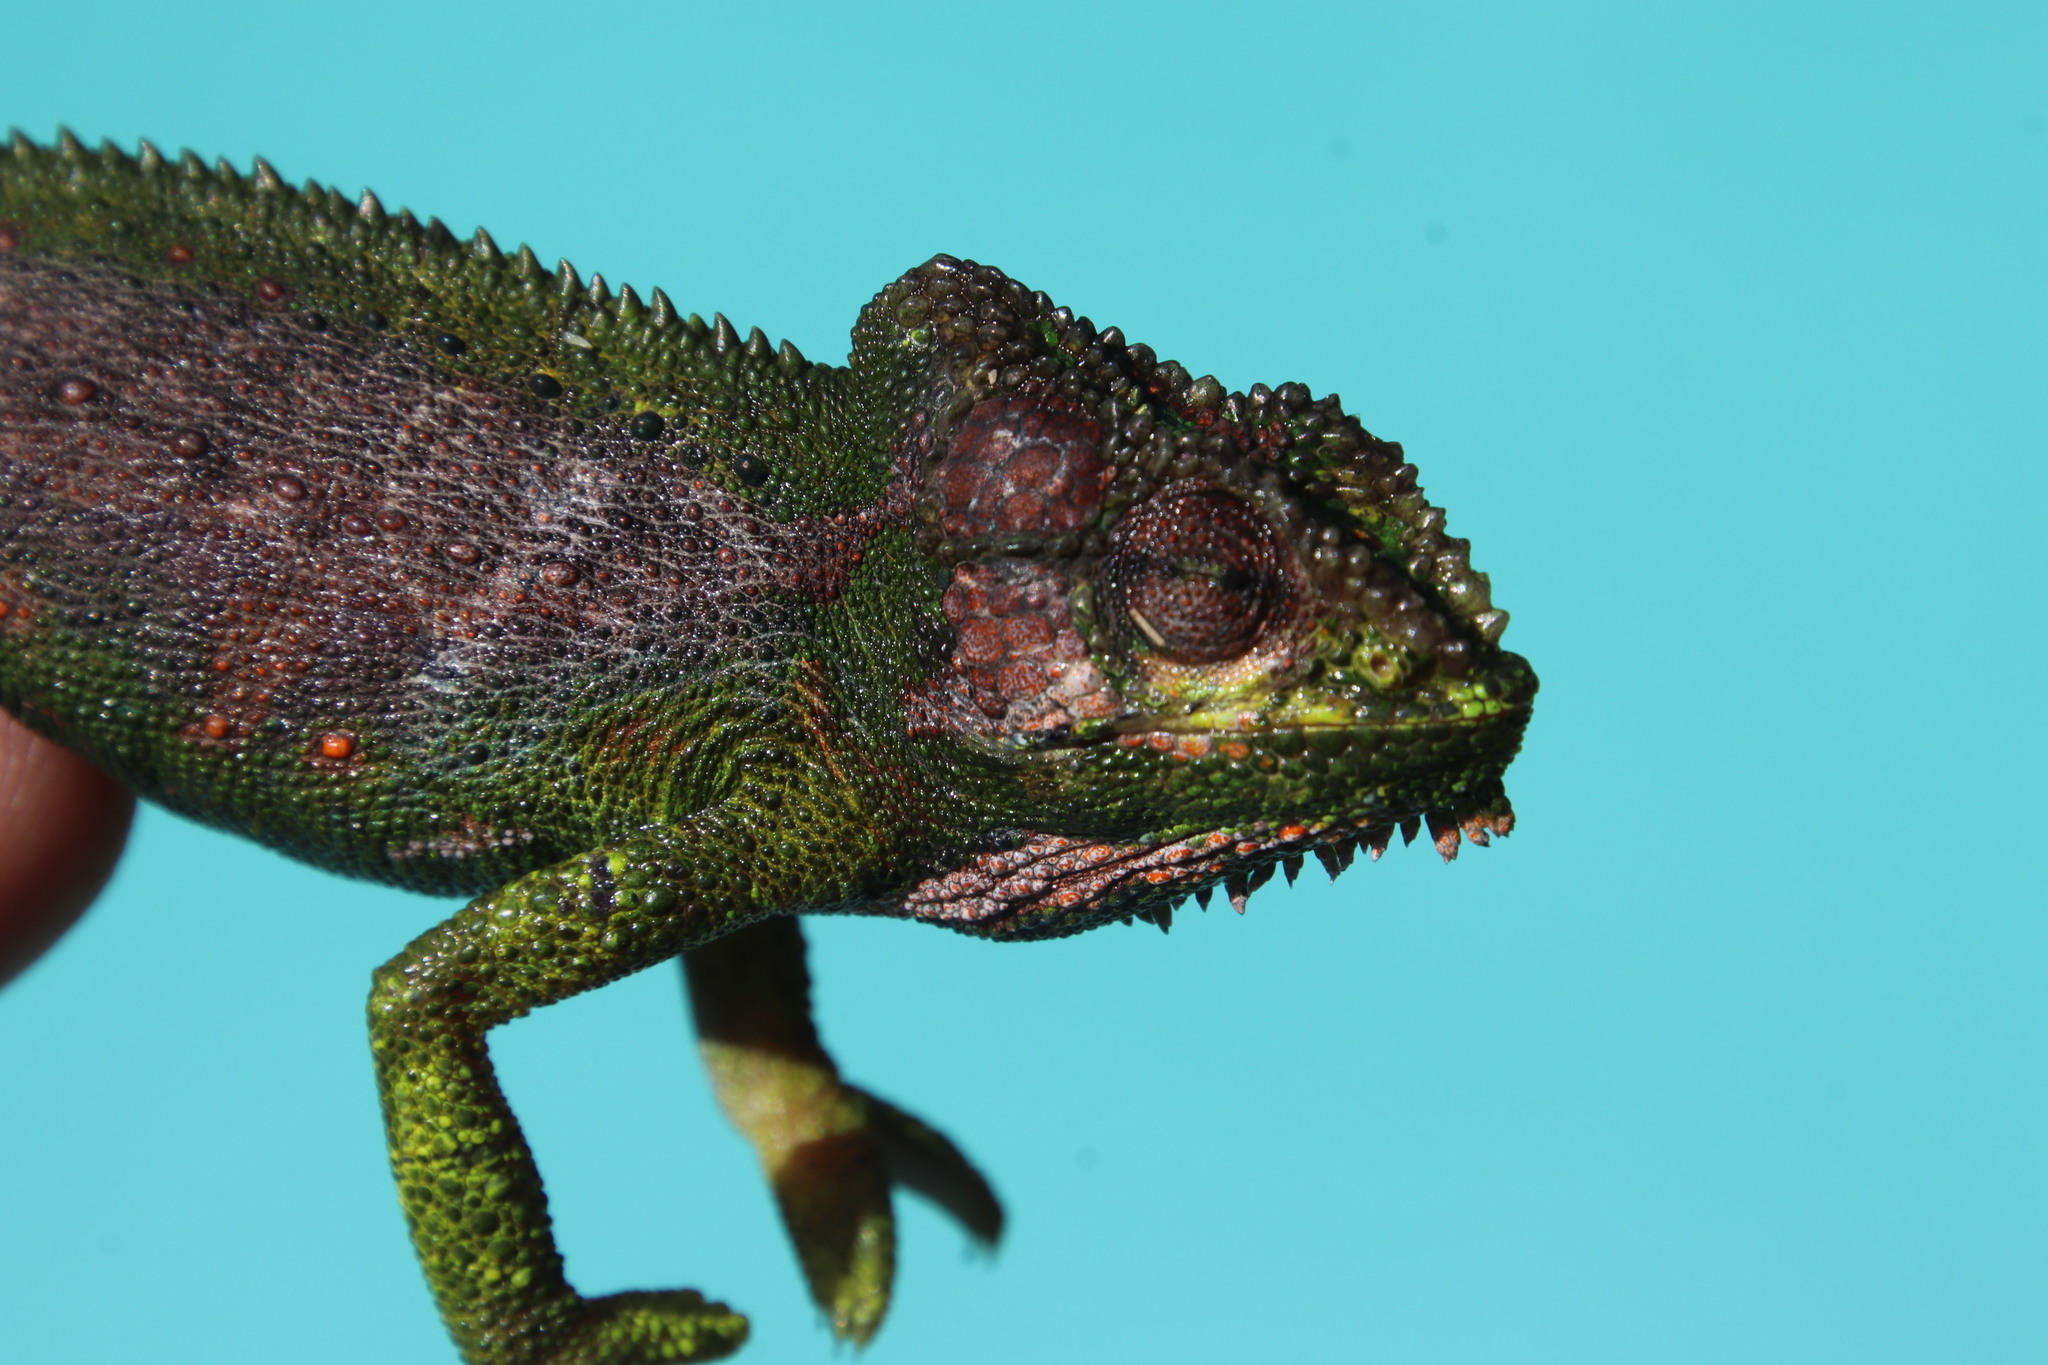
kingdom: Animalia
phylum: Chordata
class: Squamata
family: Chamaeleonidae
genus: Bradypodion
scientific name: Bradypodion pumilum
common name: Cape dwarf chameleon
